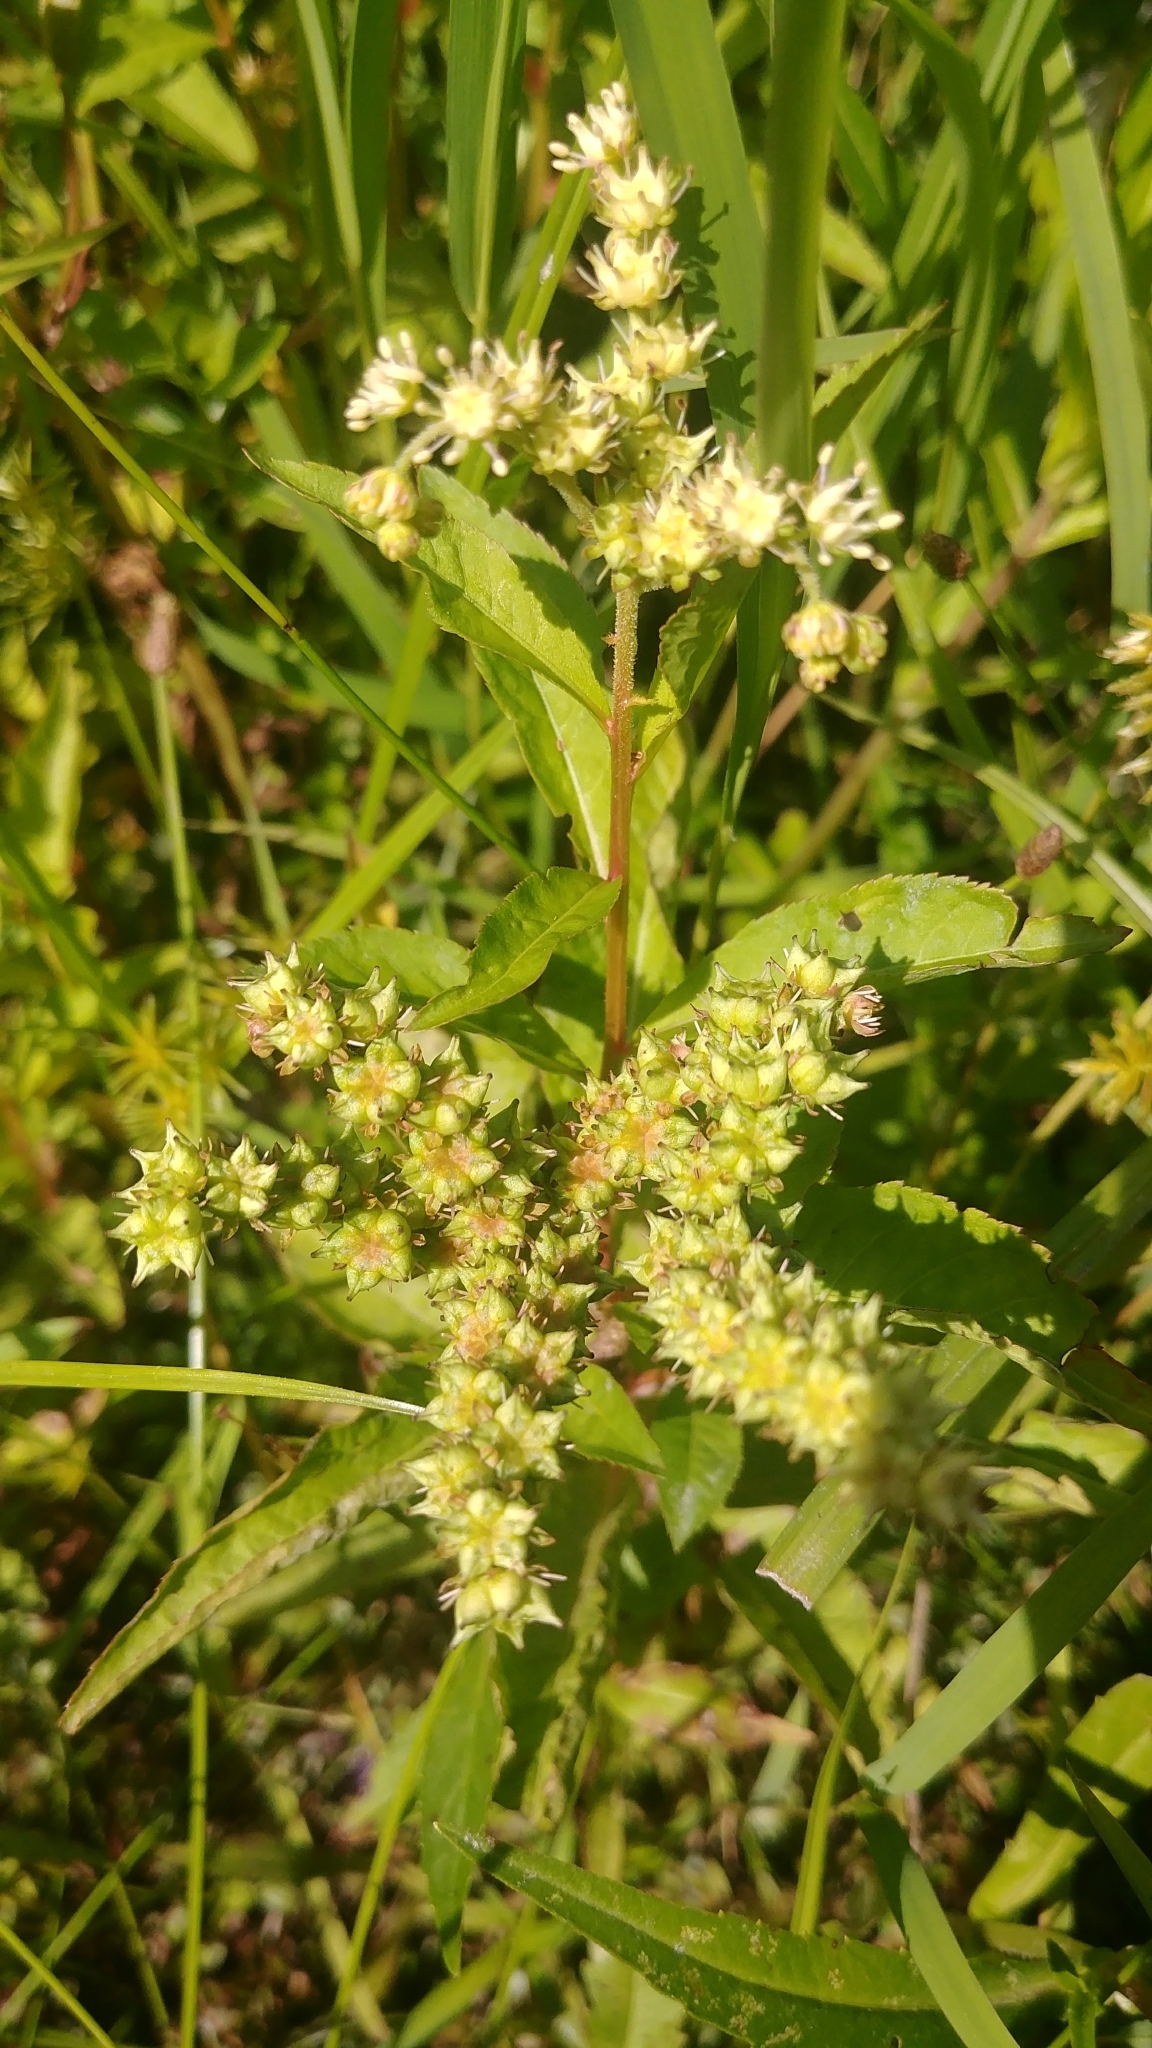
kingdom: Plantae
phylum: Tracheophyta
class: Magnoliopsida
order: Saxifragales
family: Penthoraceae
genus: Penthorum
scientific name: Penthorum sedoides
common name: Ditch stonecrop
